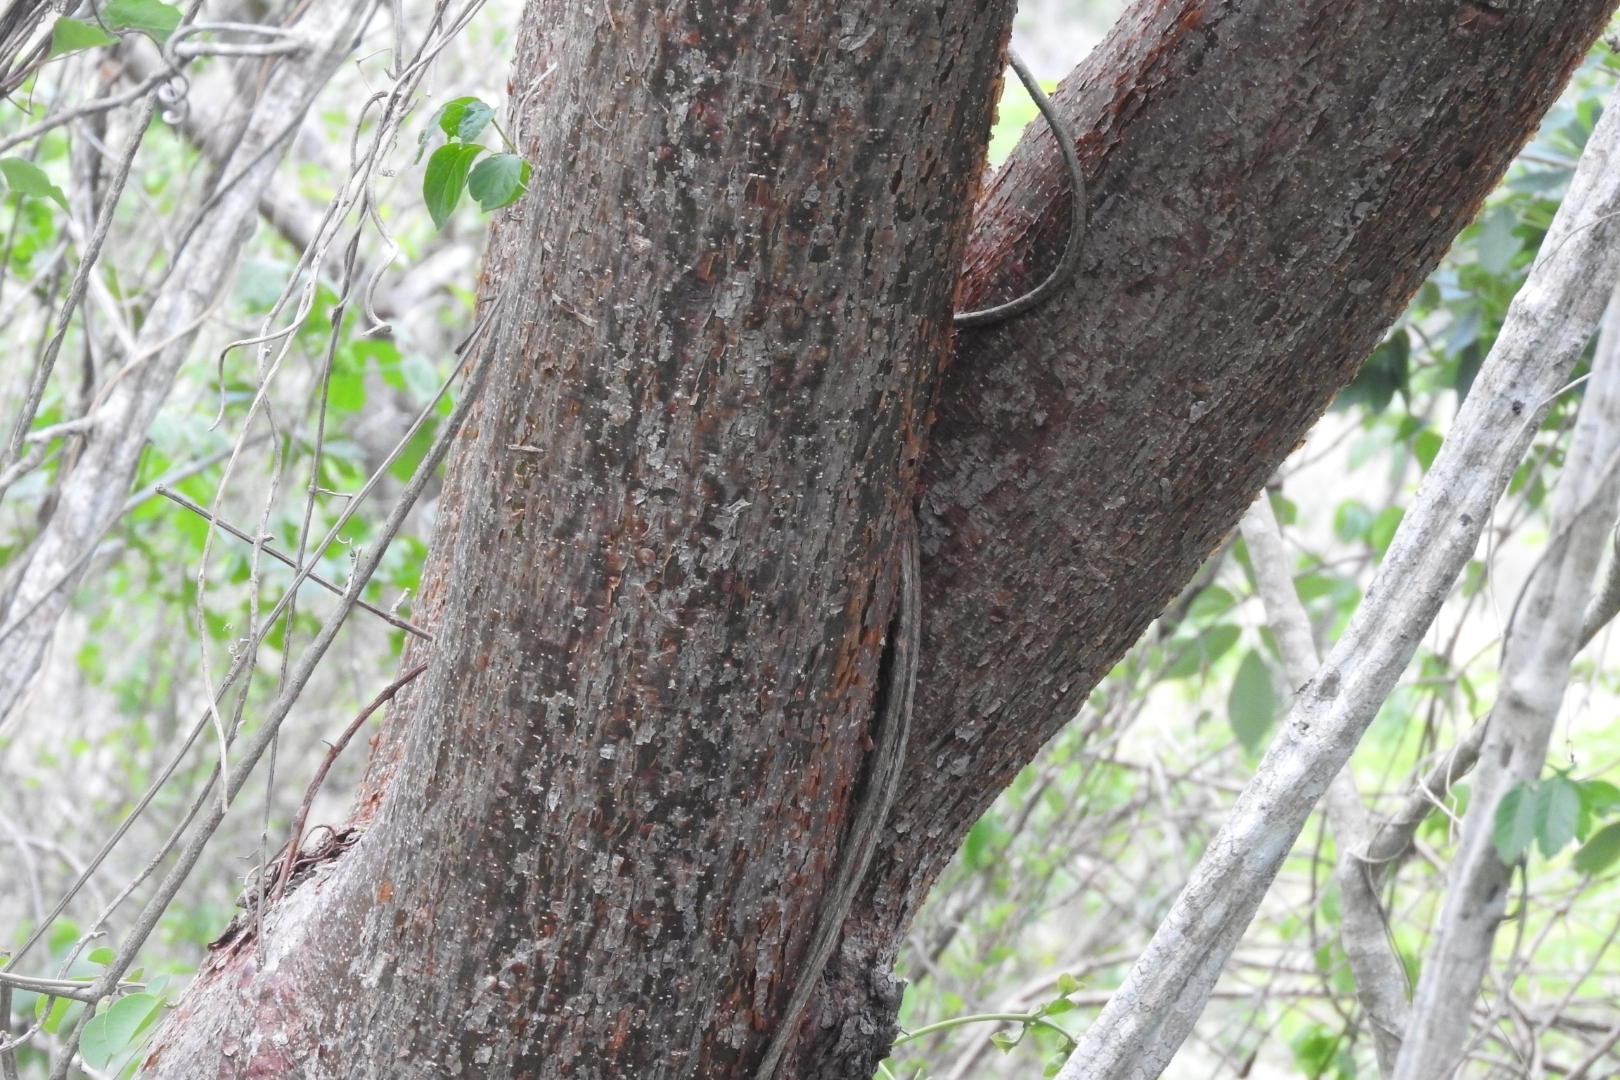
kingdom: Plantae
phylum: Tracheophyta
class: Magnoliopsida
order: Sapindales
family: Burseraceae
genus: Bursera
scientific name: Bursera simaruba
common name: Turpentine tree
